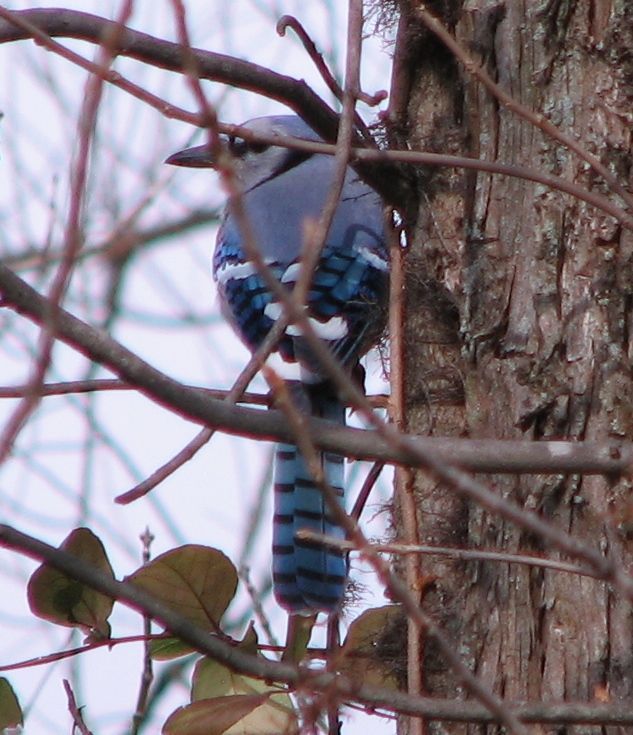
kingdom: Animalia
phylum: Chordata
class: Aves
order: Passeriformes
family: Corvidae
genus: Cyanocitta
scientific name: Cyanocitta cristata
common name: Blue jay
